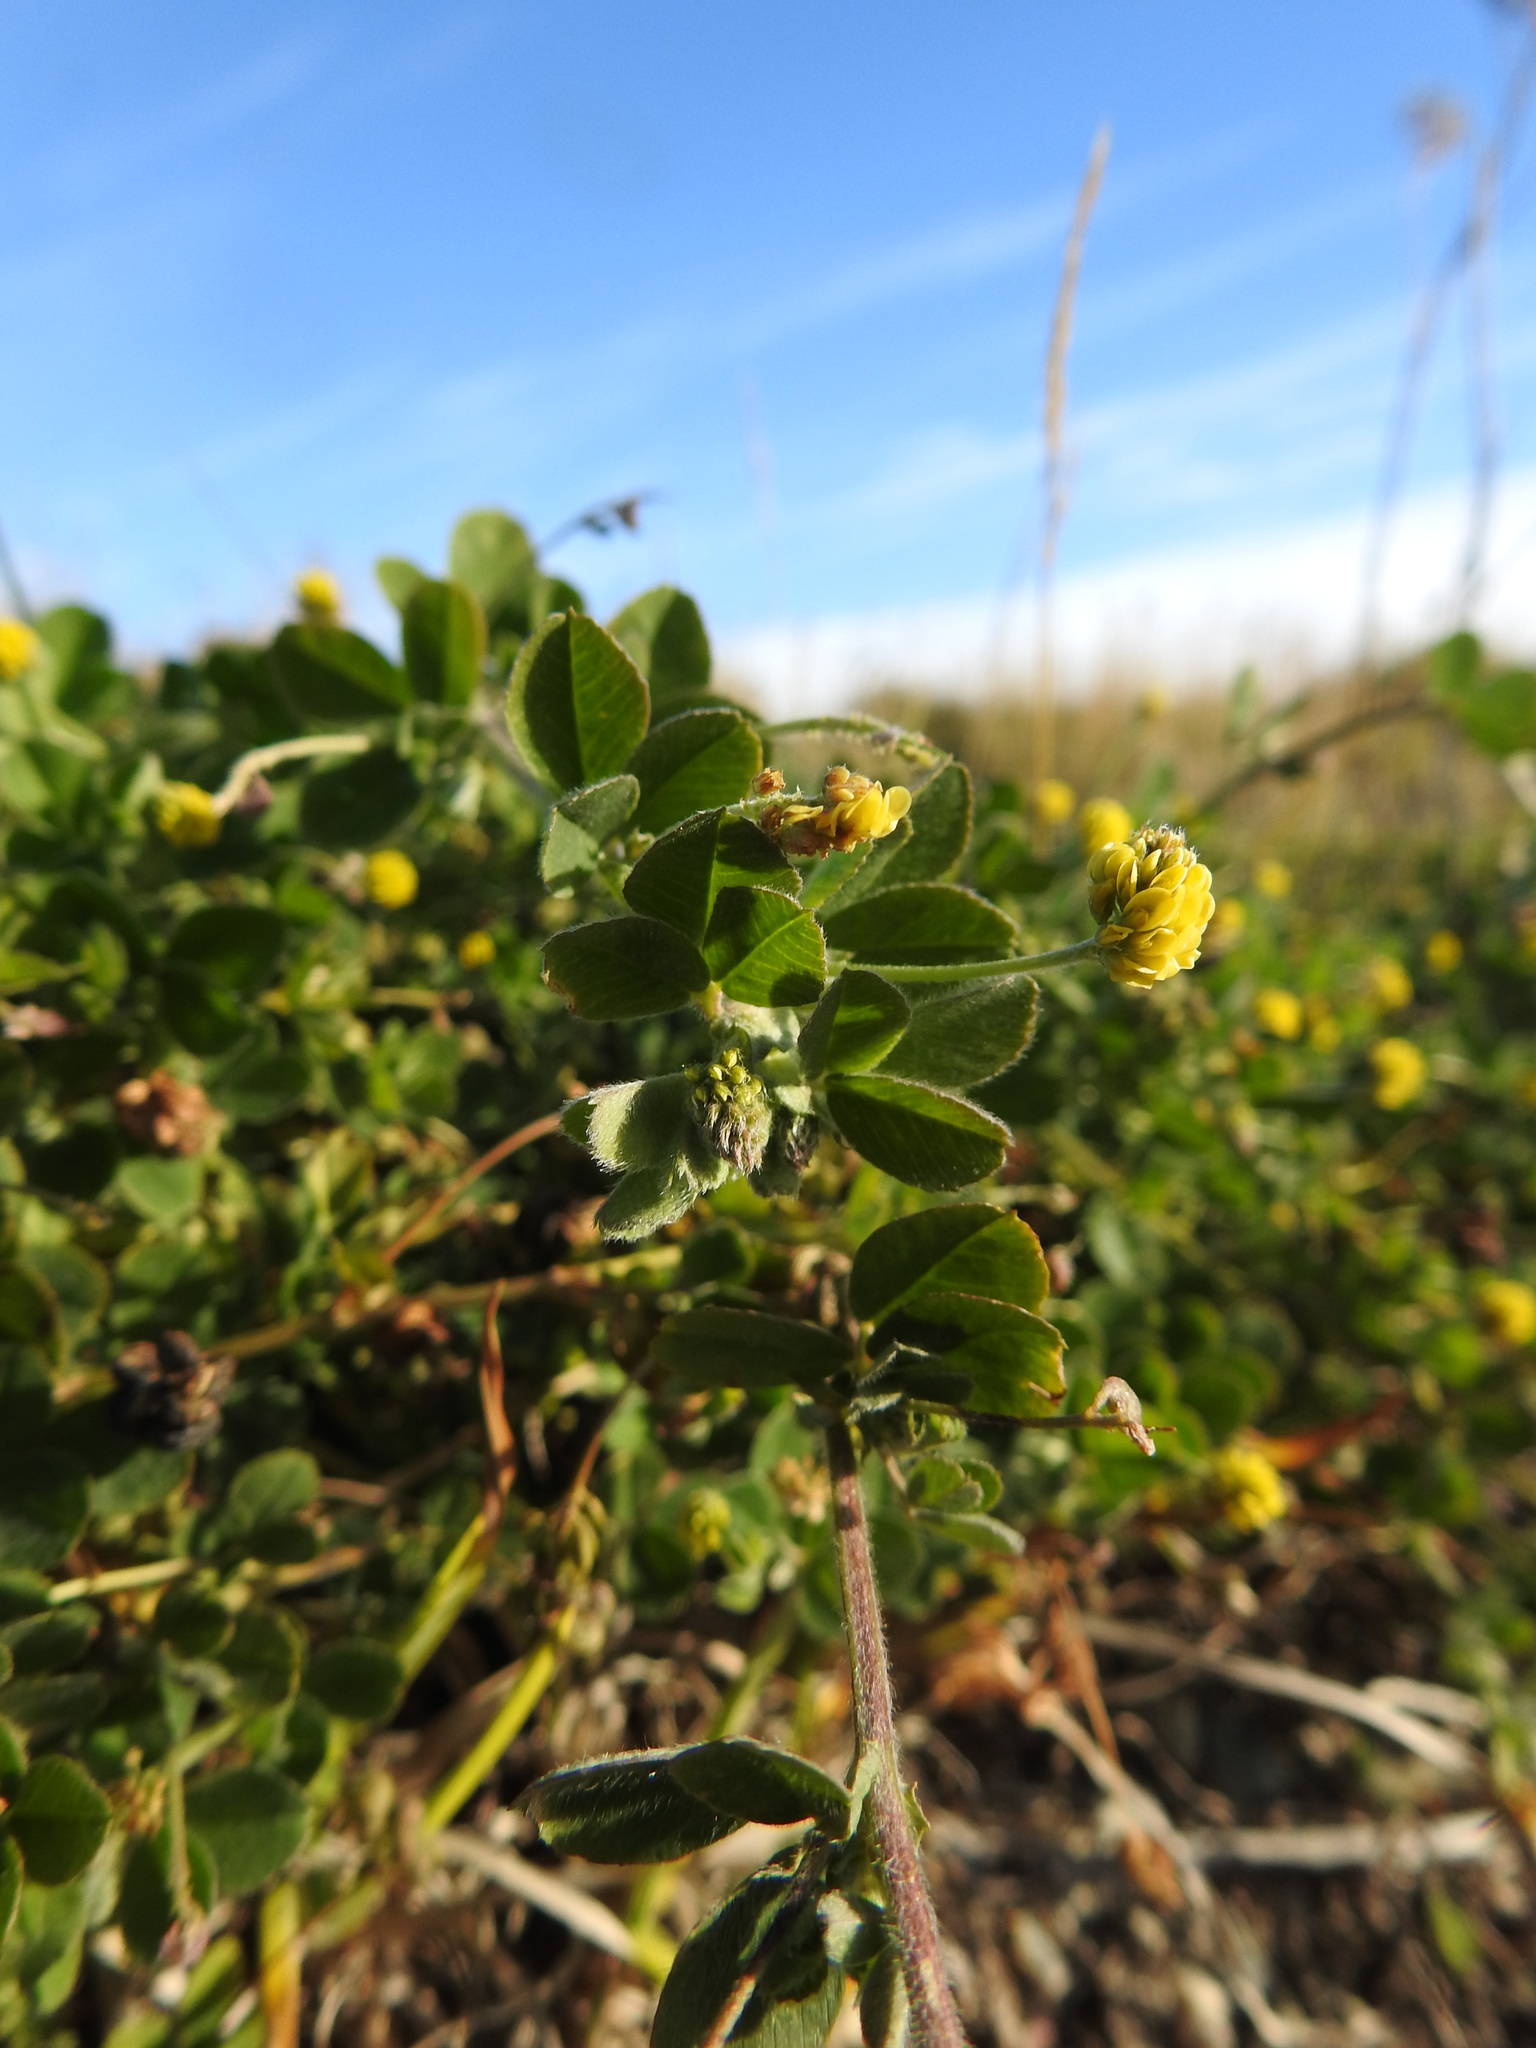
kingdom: Plantae
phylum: Tracheophyta
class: Magnoliopsida
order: Fabales
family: Fabaceae
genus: Medicago
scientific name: Medicago lupulina
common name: Black medick
